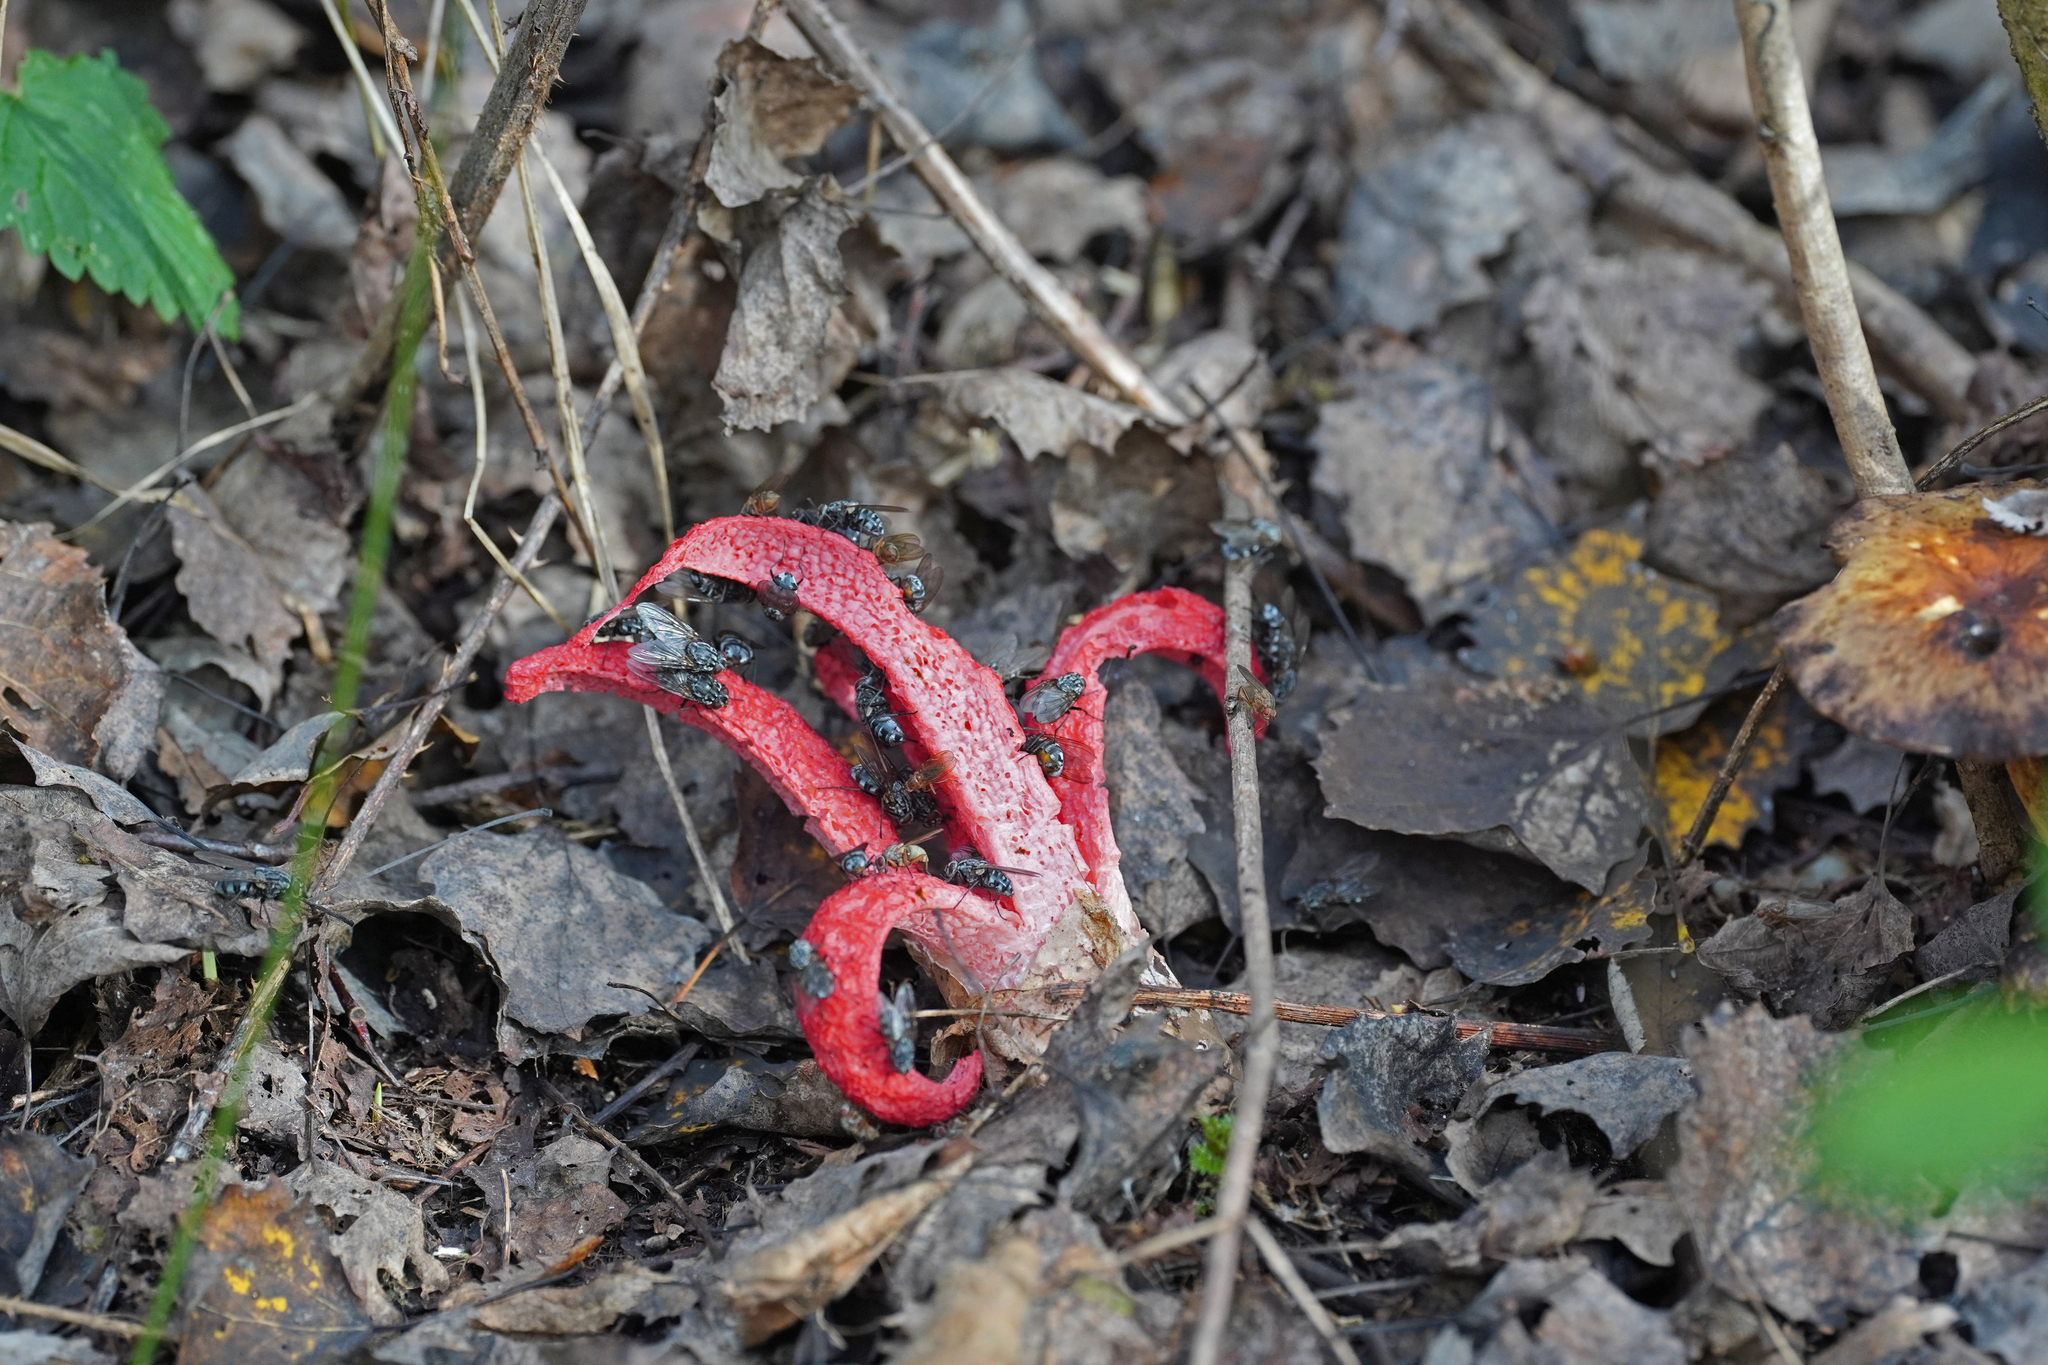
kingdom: Fungi
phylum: Basidiomycota
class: Agaricomycetes
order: Phallales
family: Phallaceae
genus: Clathrus
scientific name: Clathrus archeri
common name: Devil's fingers
